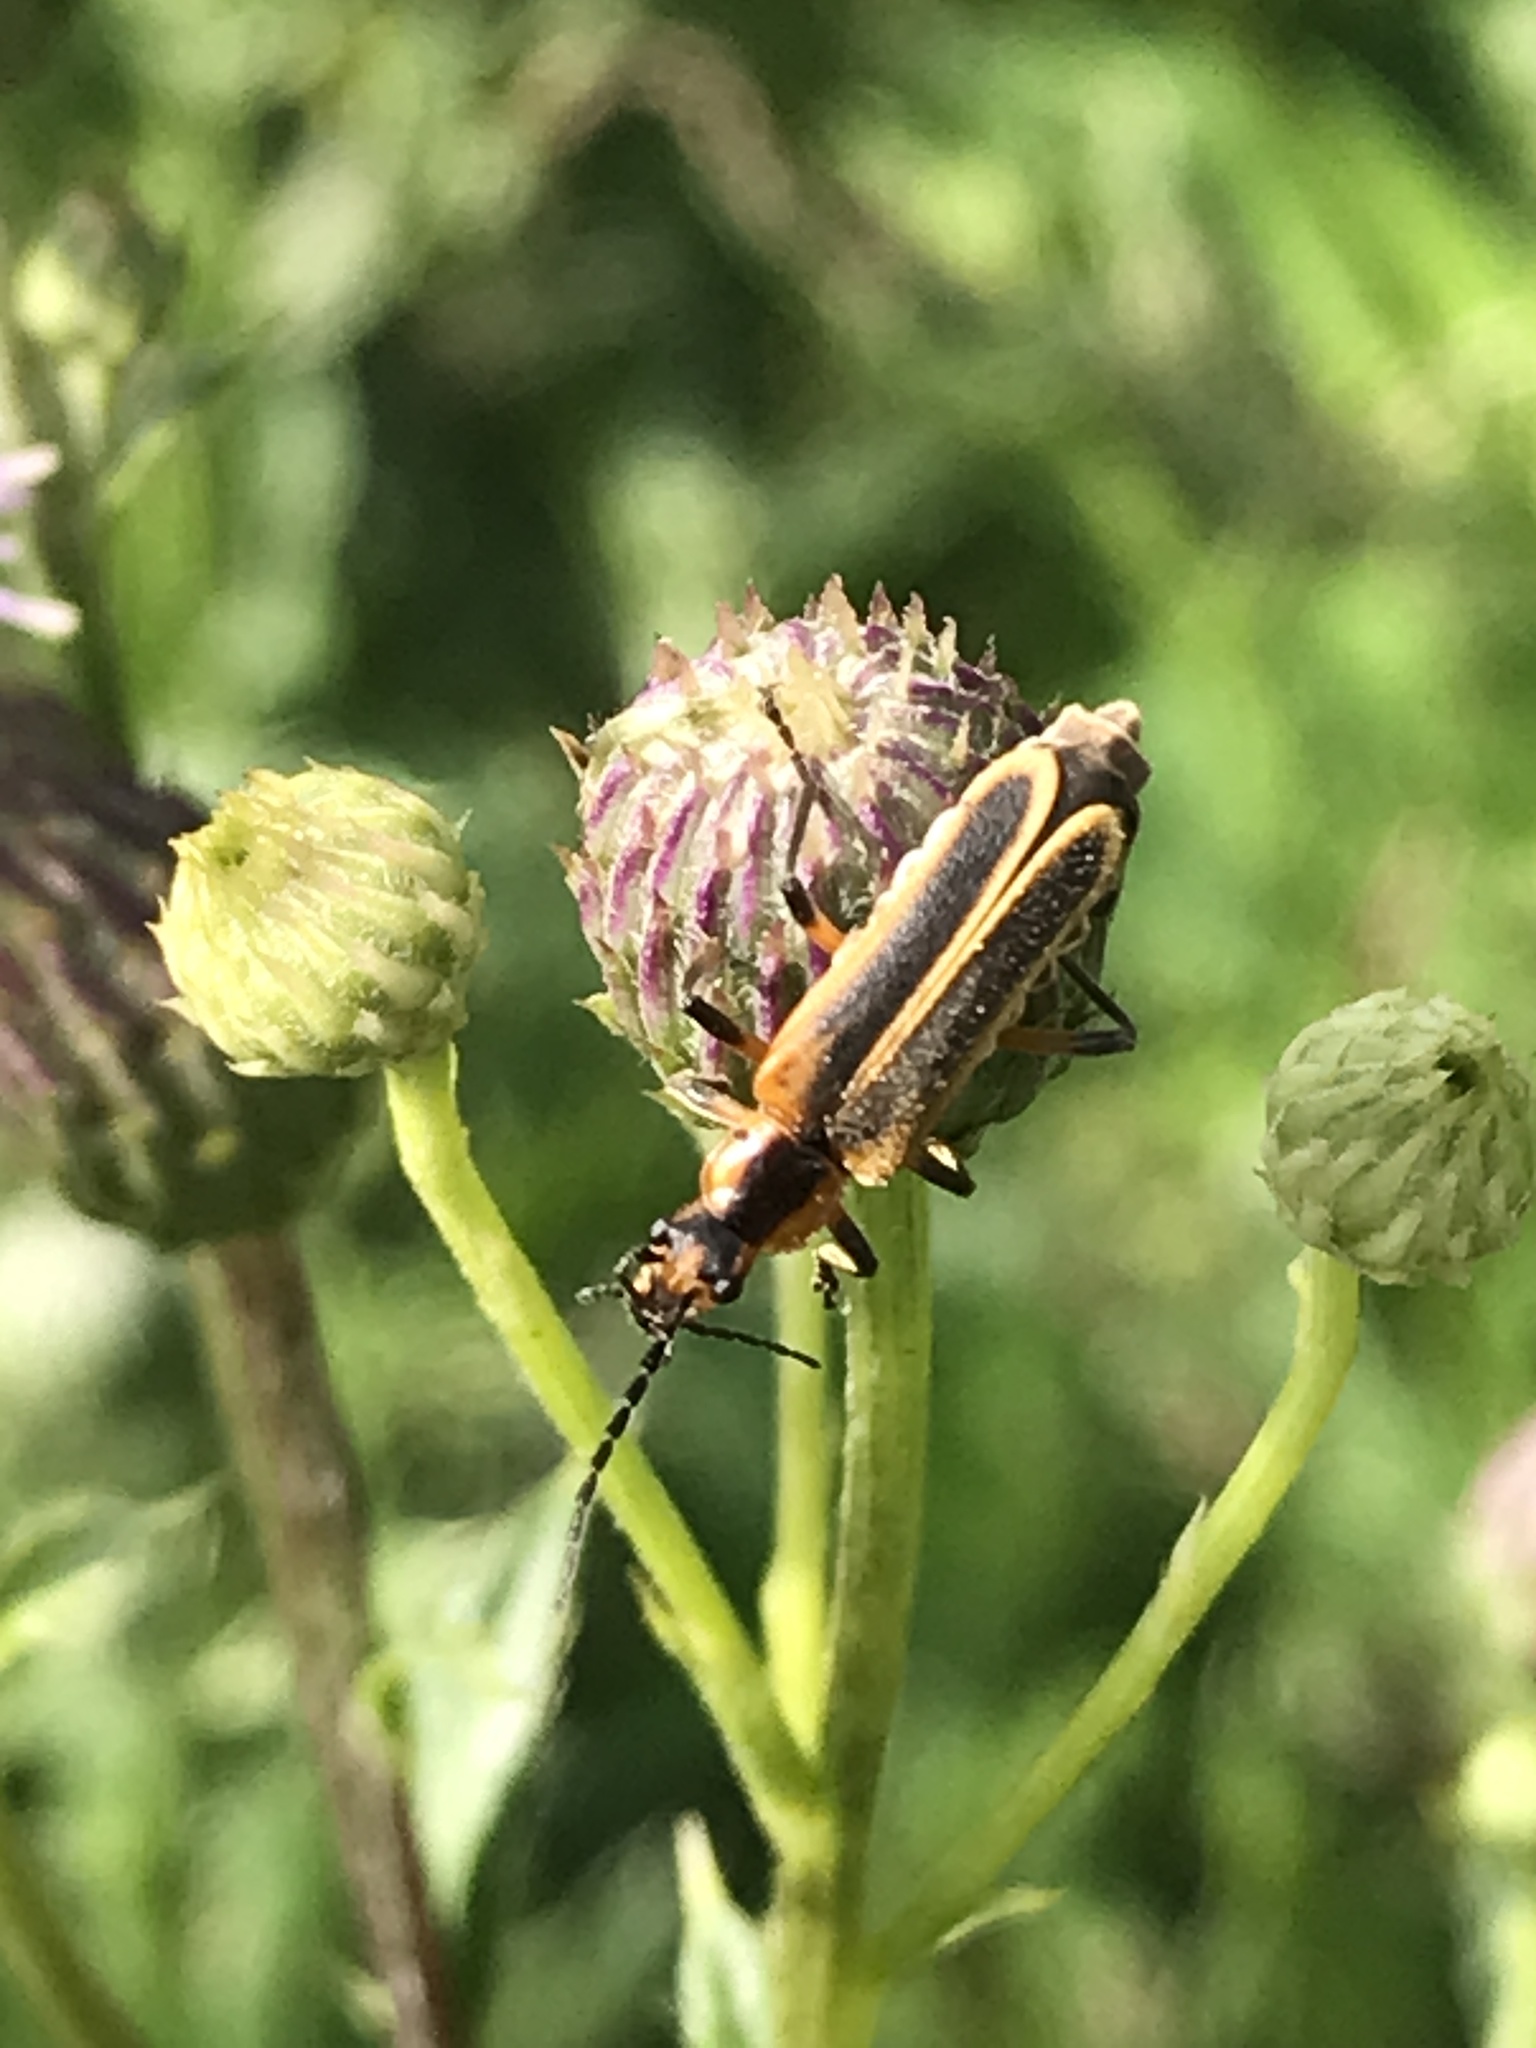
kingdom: Animalia
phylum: Arthropoda
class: Insecta
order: Coleoptera
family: Cantharidae
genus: Chauliognathus
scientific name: Chauliognathus marginatus
